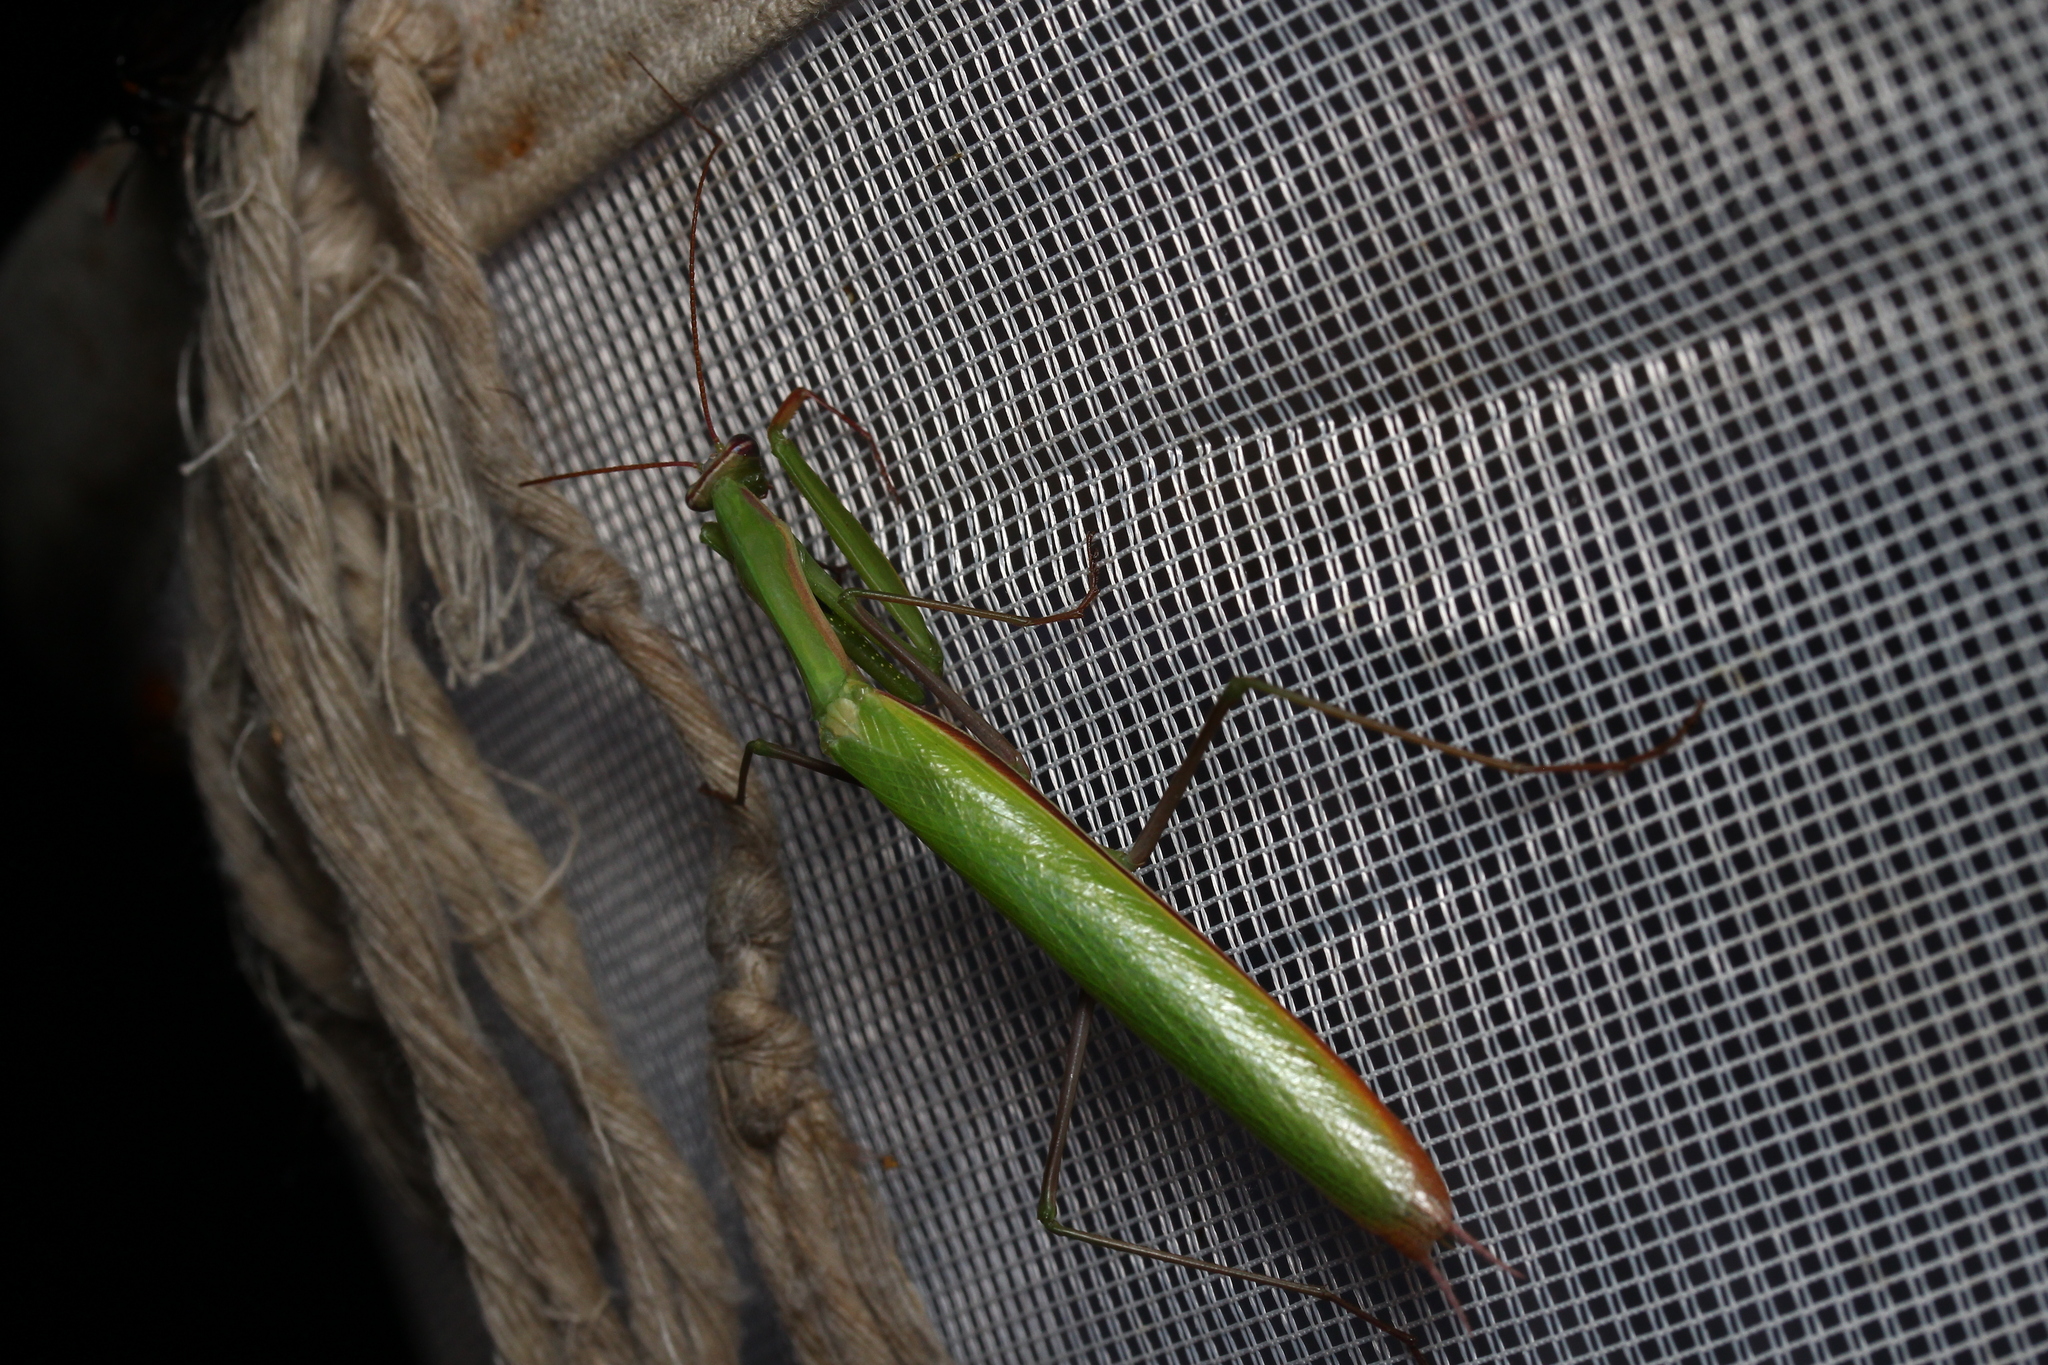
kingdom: Animalia
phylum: Arthropoda
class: Insecta
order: Mantodea
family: Mantidae
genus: Mantis
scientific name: Mantis religiosa
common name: Praying mantis
